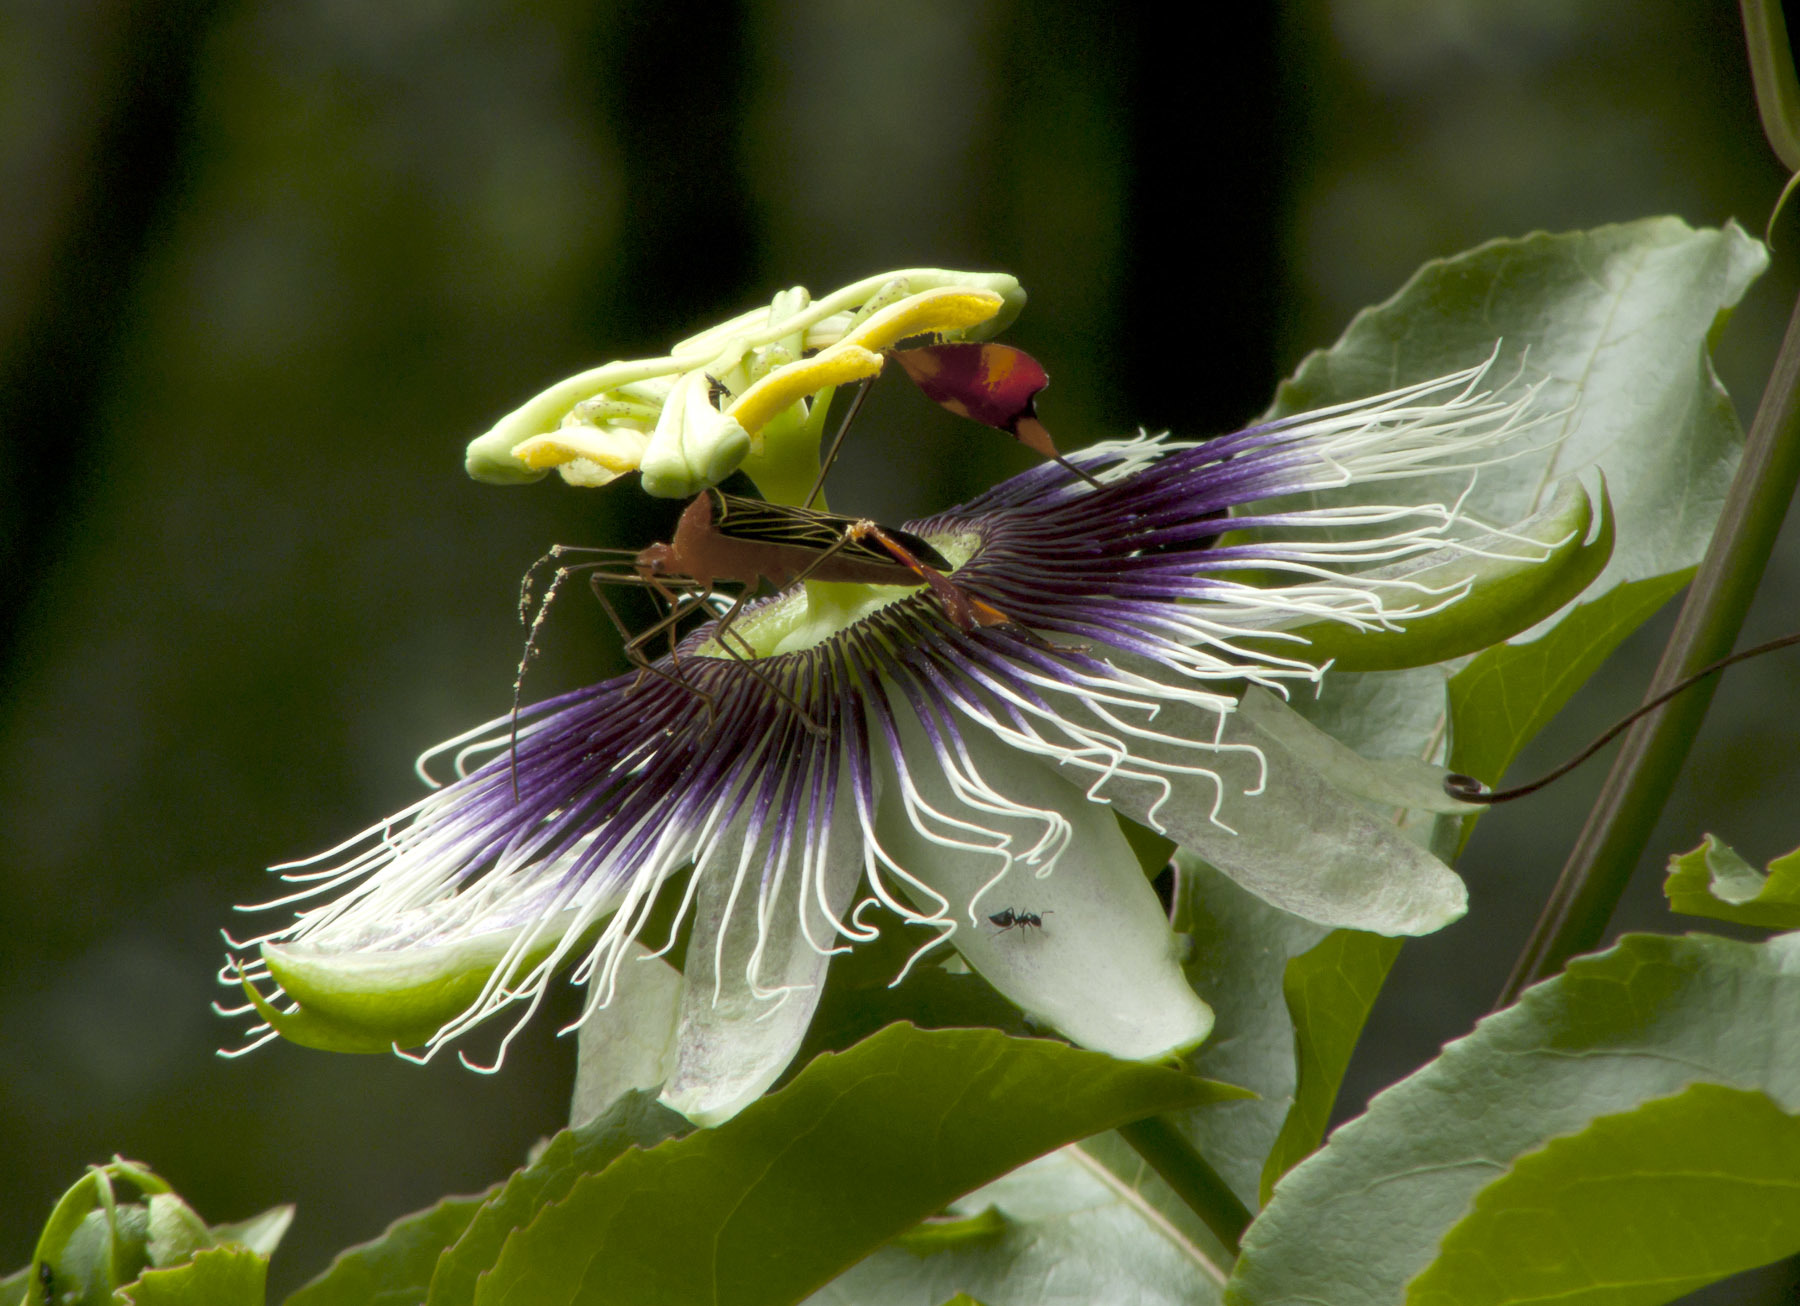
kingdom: Plantae
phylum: Tracheophyta
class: Magnoliopsida
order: Malpighiales
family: Passifloraceae
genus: Passiflora
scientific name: Passiflora edulis
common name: Purple granadilla
